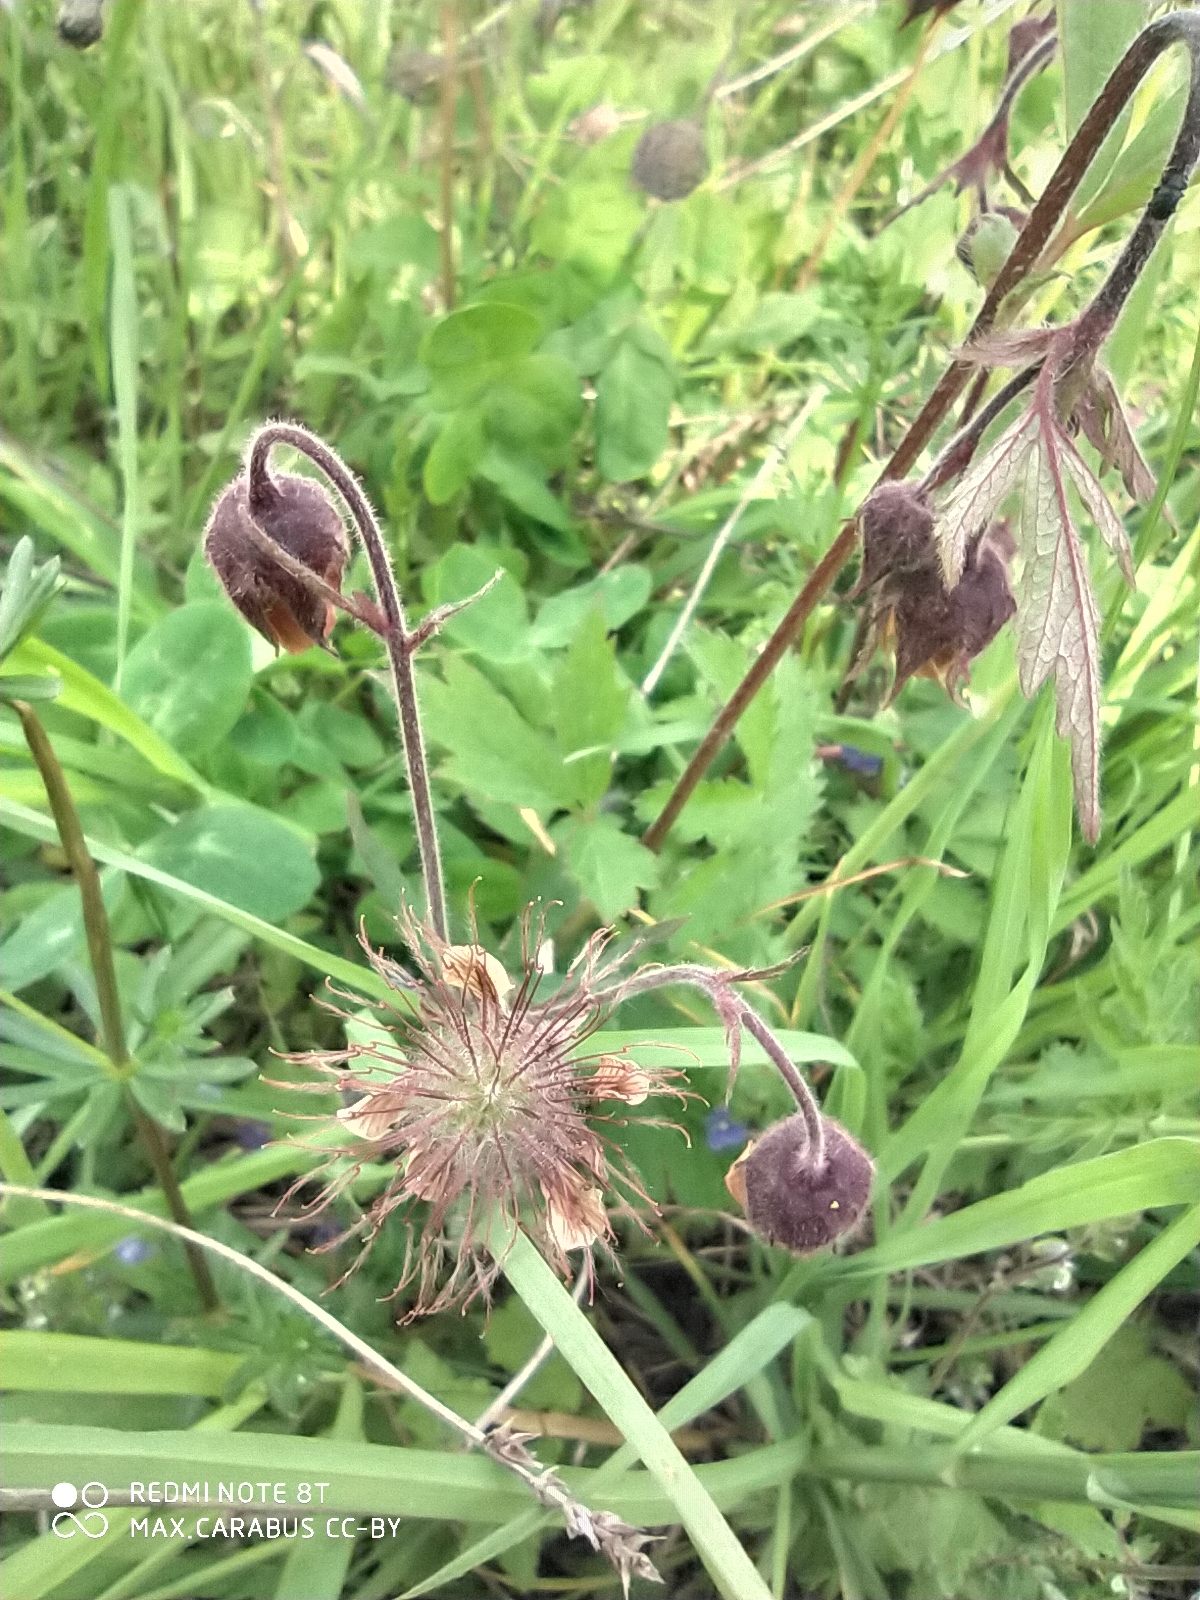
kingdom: Plantae
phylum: Tracheophyta
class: Magnoliopsida
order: Rosales
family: Rosaceae
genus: Geum
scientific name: Geum rivale
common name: Water avens
